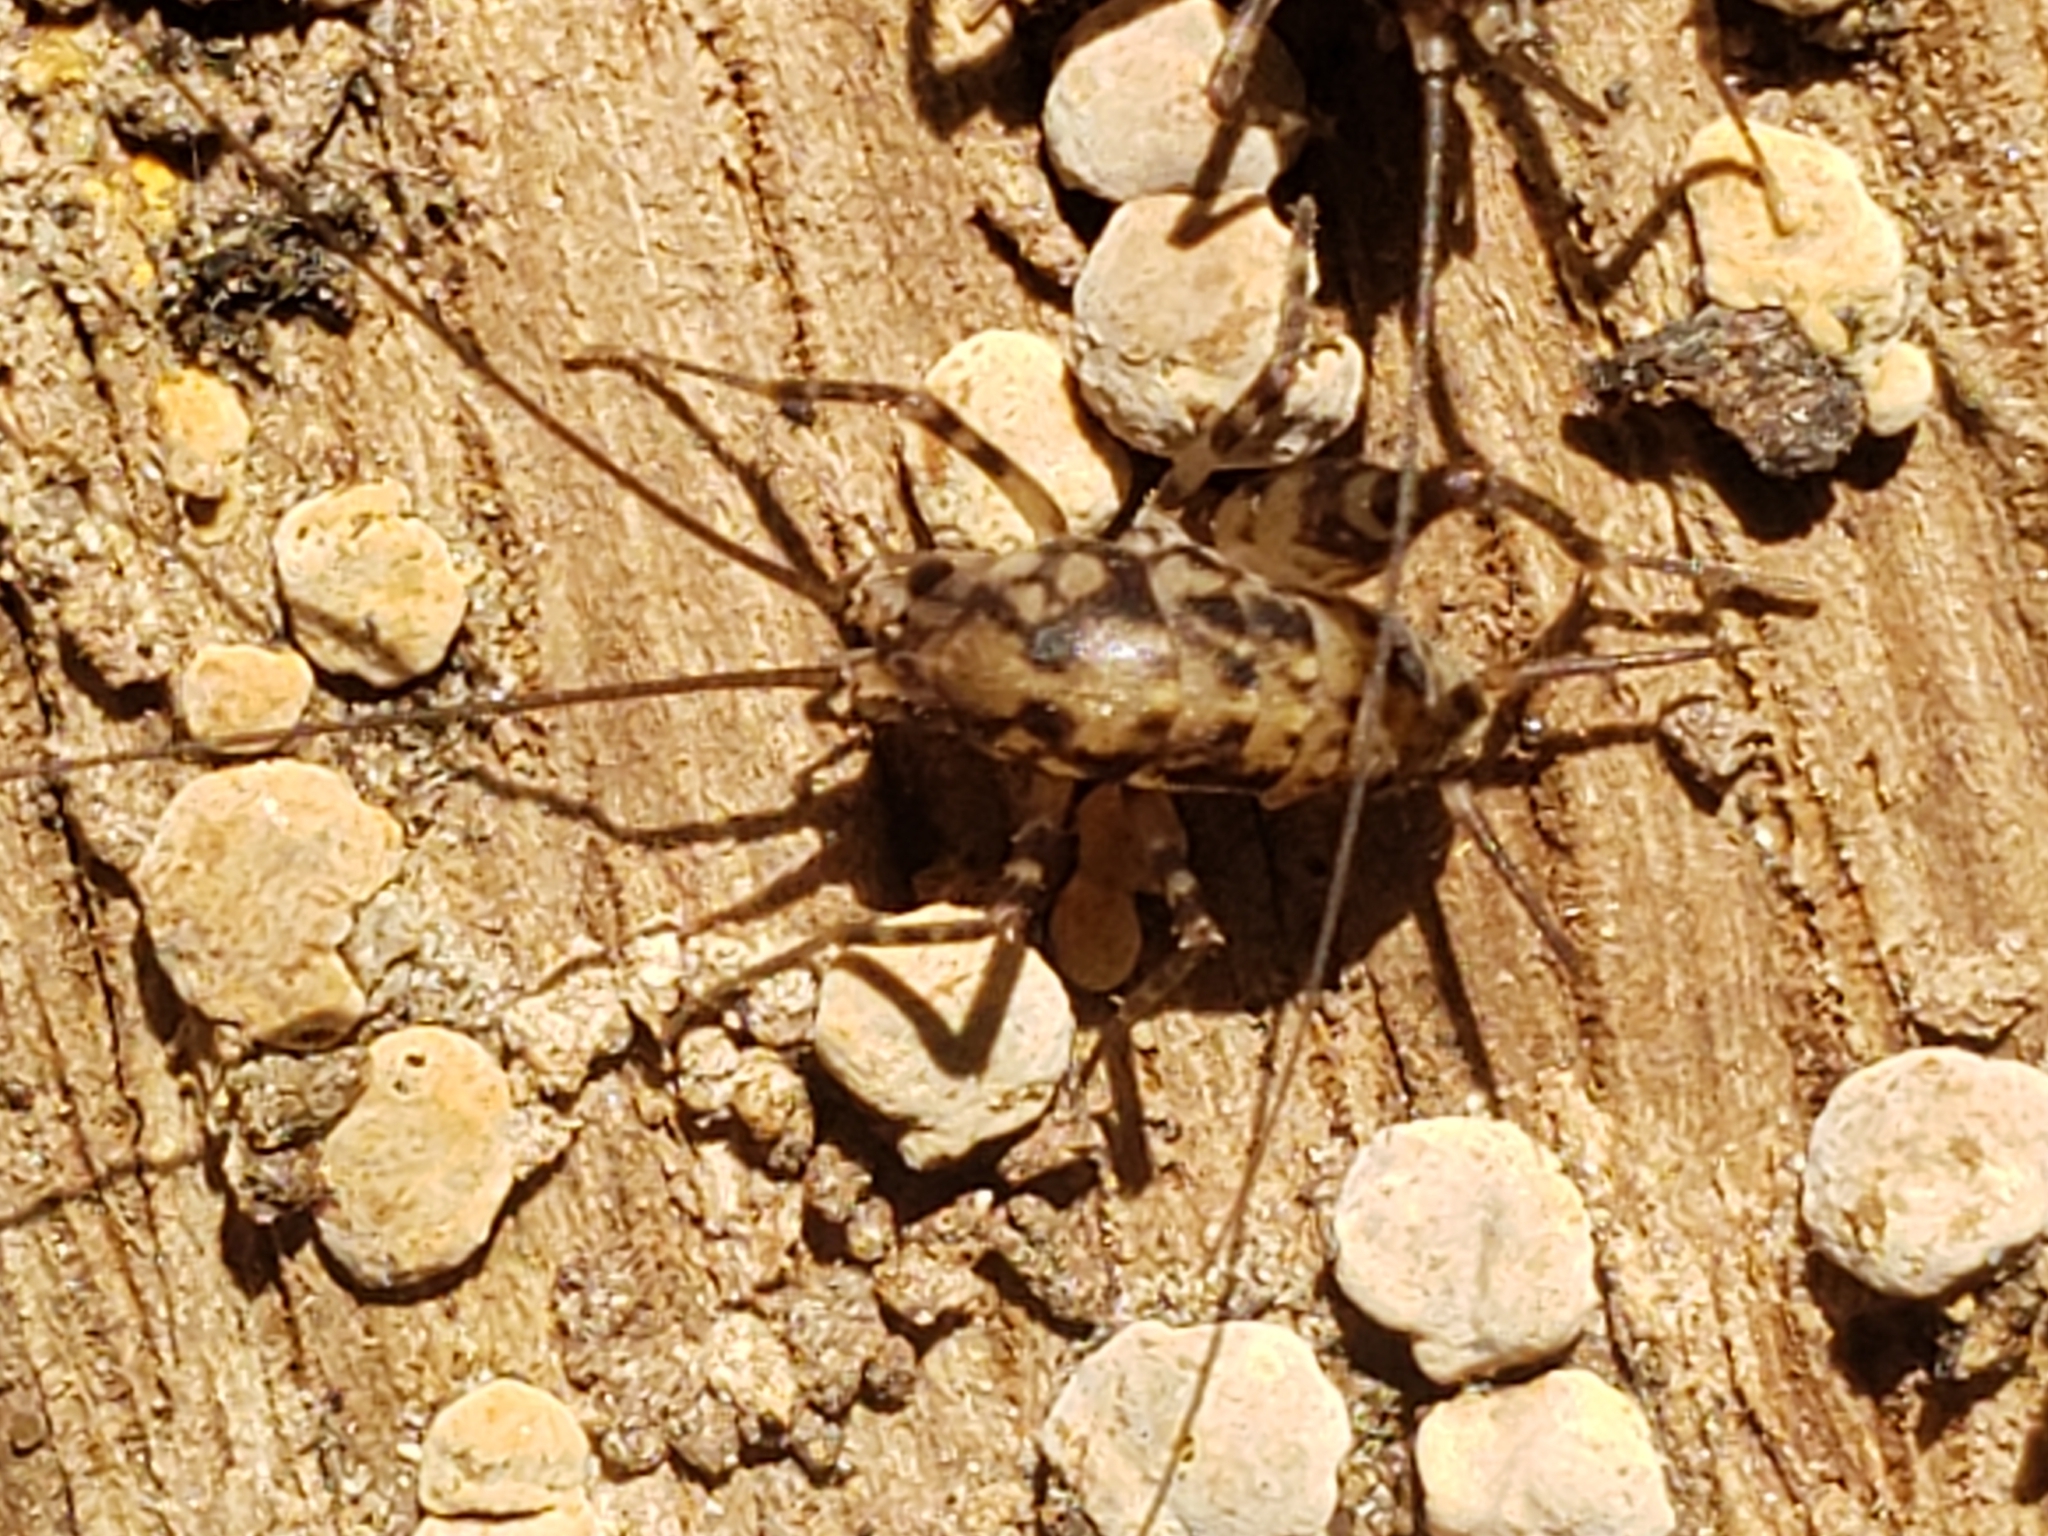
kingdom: Animalia
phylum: Arthropoda
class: Insecta
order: Orthoptera
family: Rhaphidophoridae
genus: Tachycines
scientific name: Tachycines asynamorus
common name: Greenhouse camel cricket
